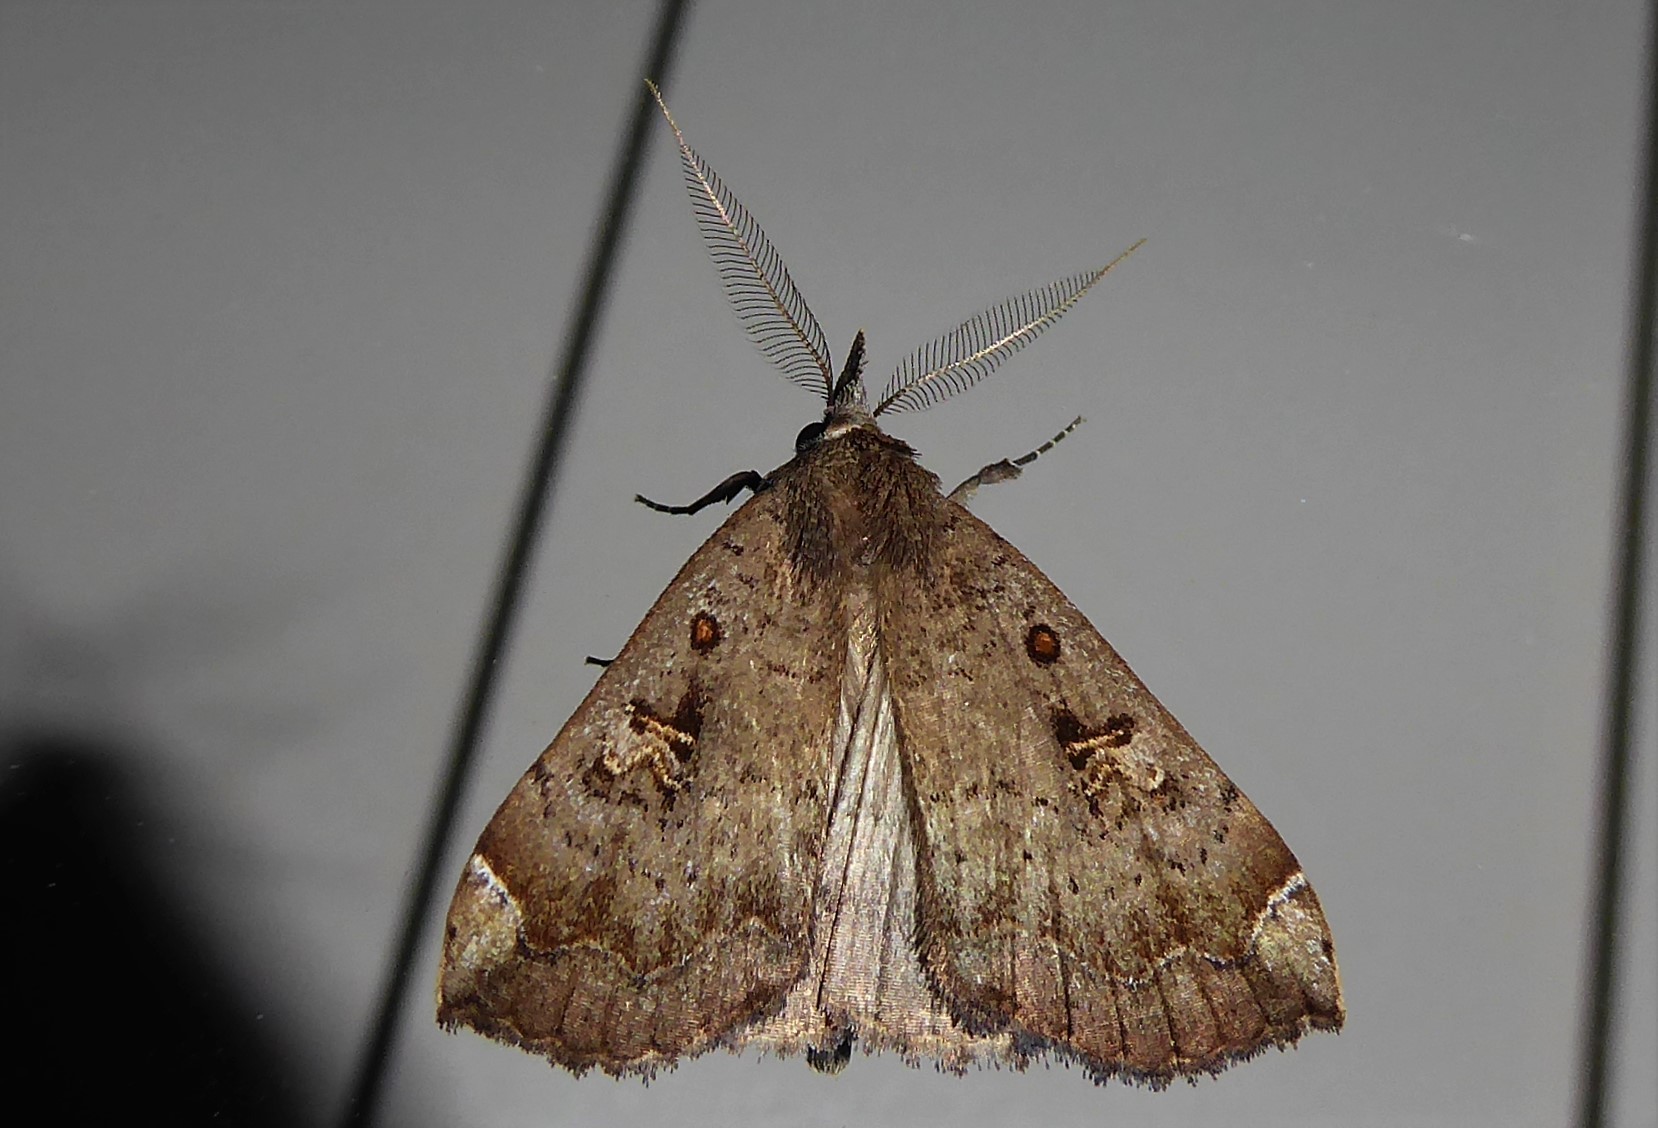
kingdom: Animalia
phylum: Arthropoda
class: Insecta
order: Lepidoptera
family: Erebidae
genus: Rhapsa
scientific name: Rhapsa scotosialis
